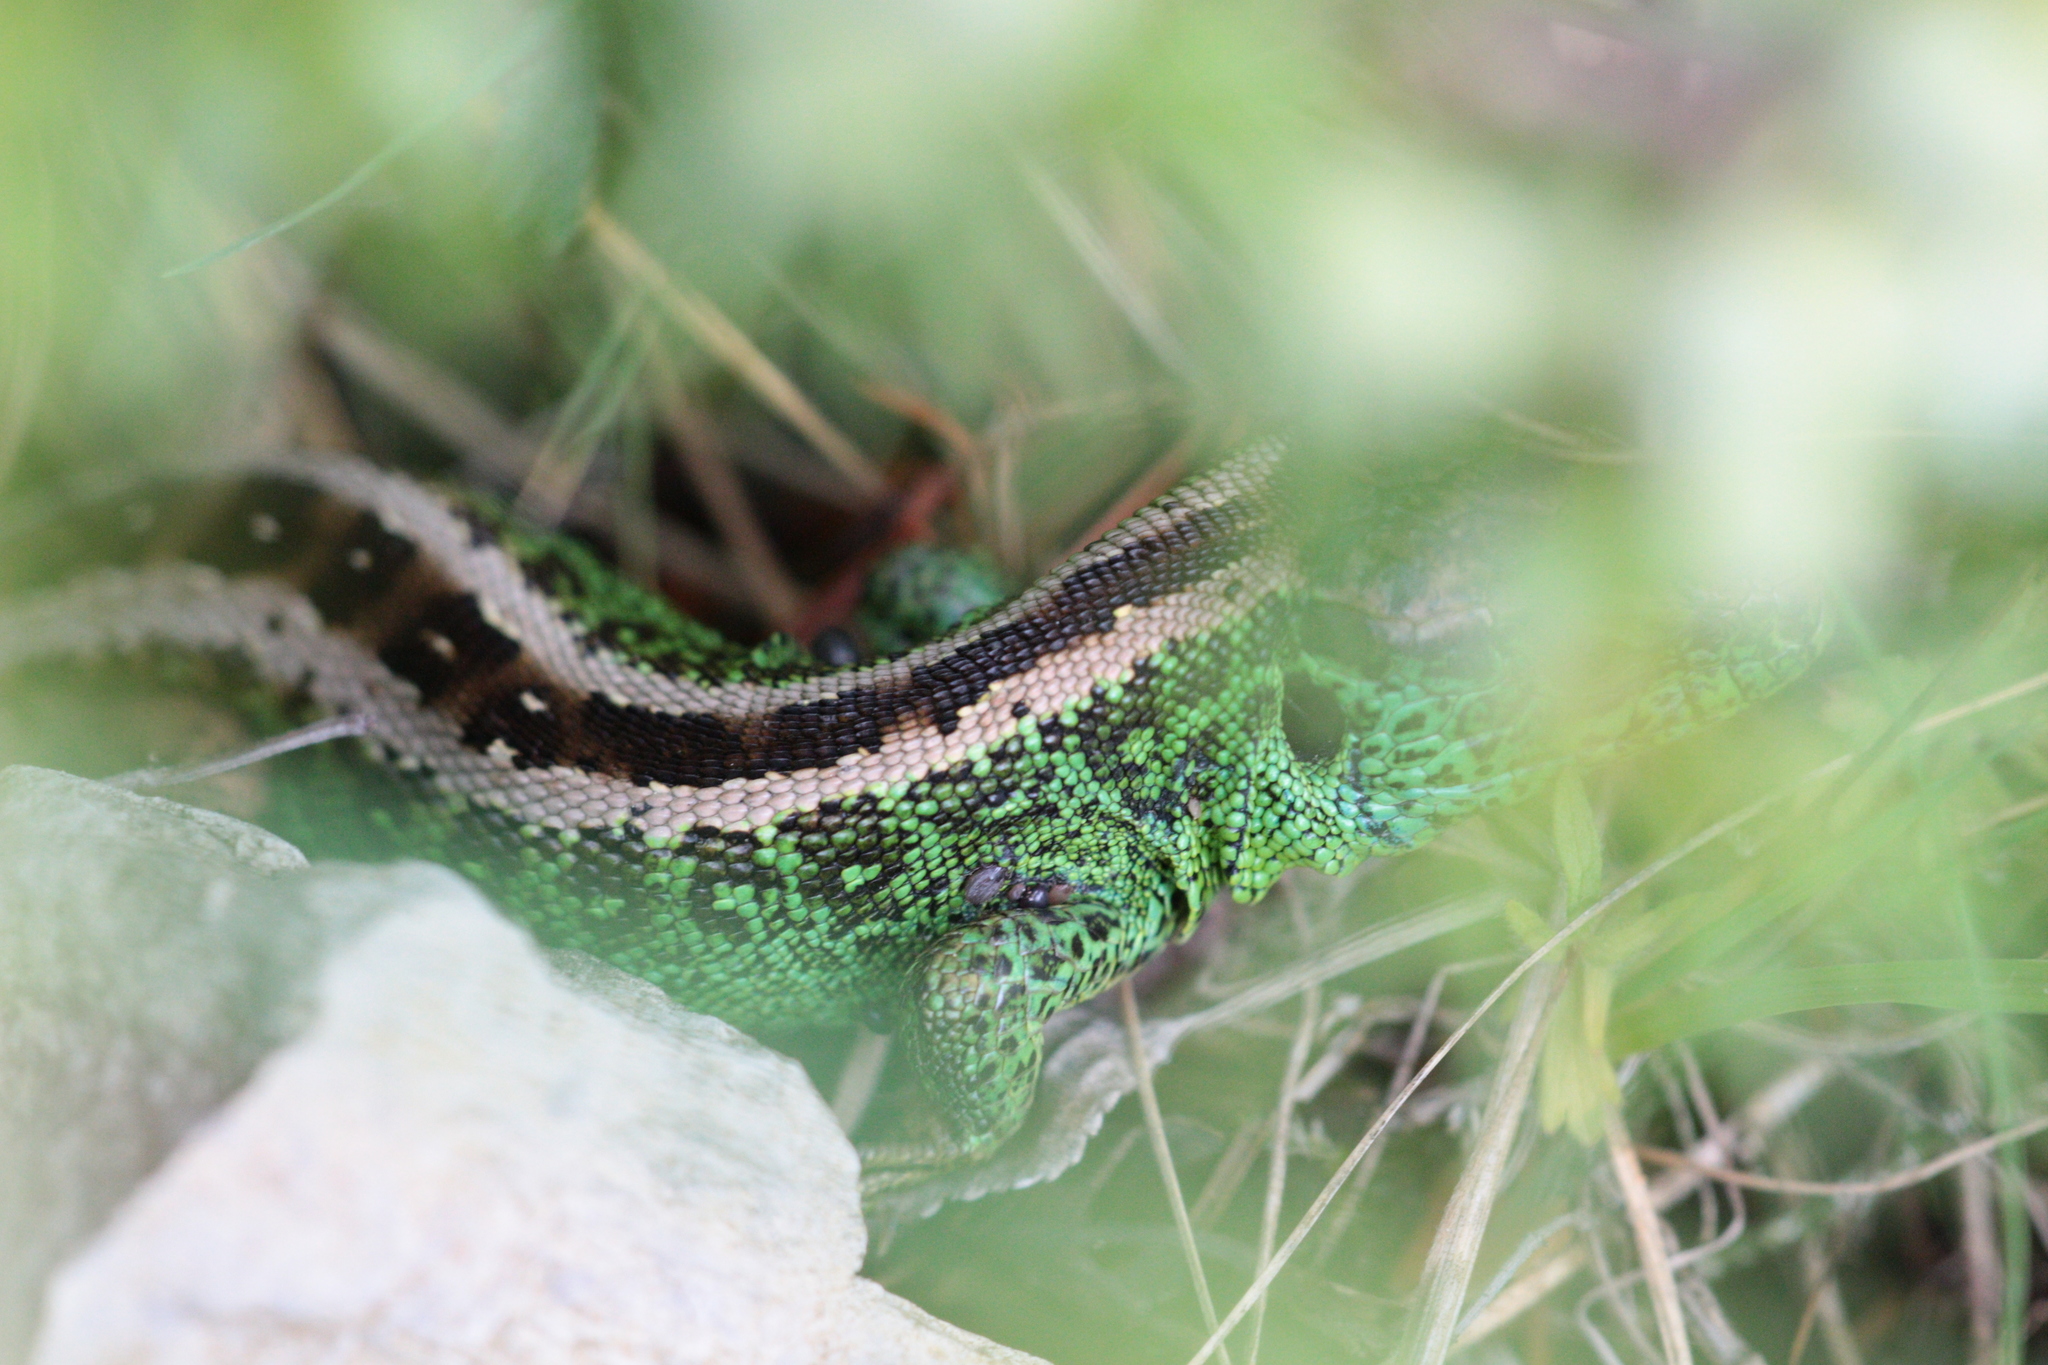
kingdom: Animalia
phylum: Chordata
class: Squamata
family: Lacertidae
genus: Lacerta
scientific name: Lacerta agilis
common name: Sand lizard
